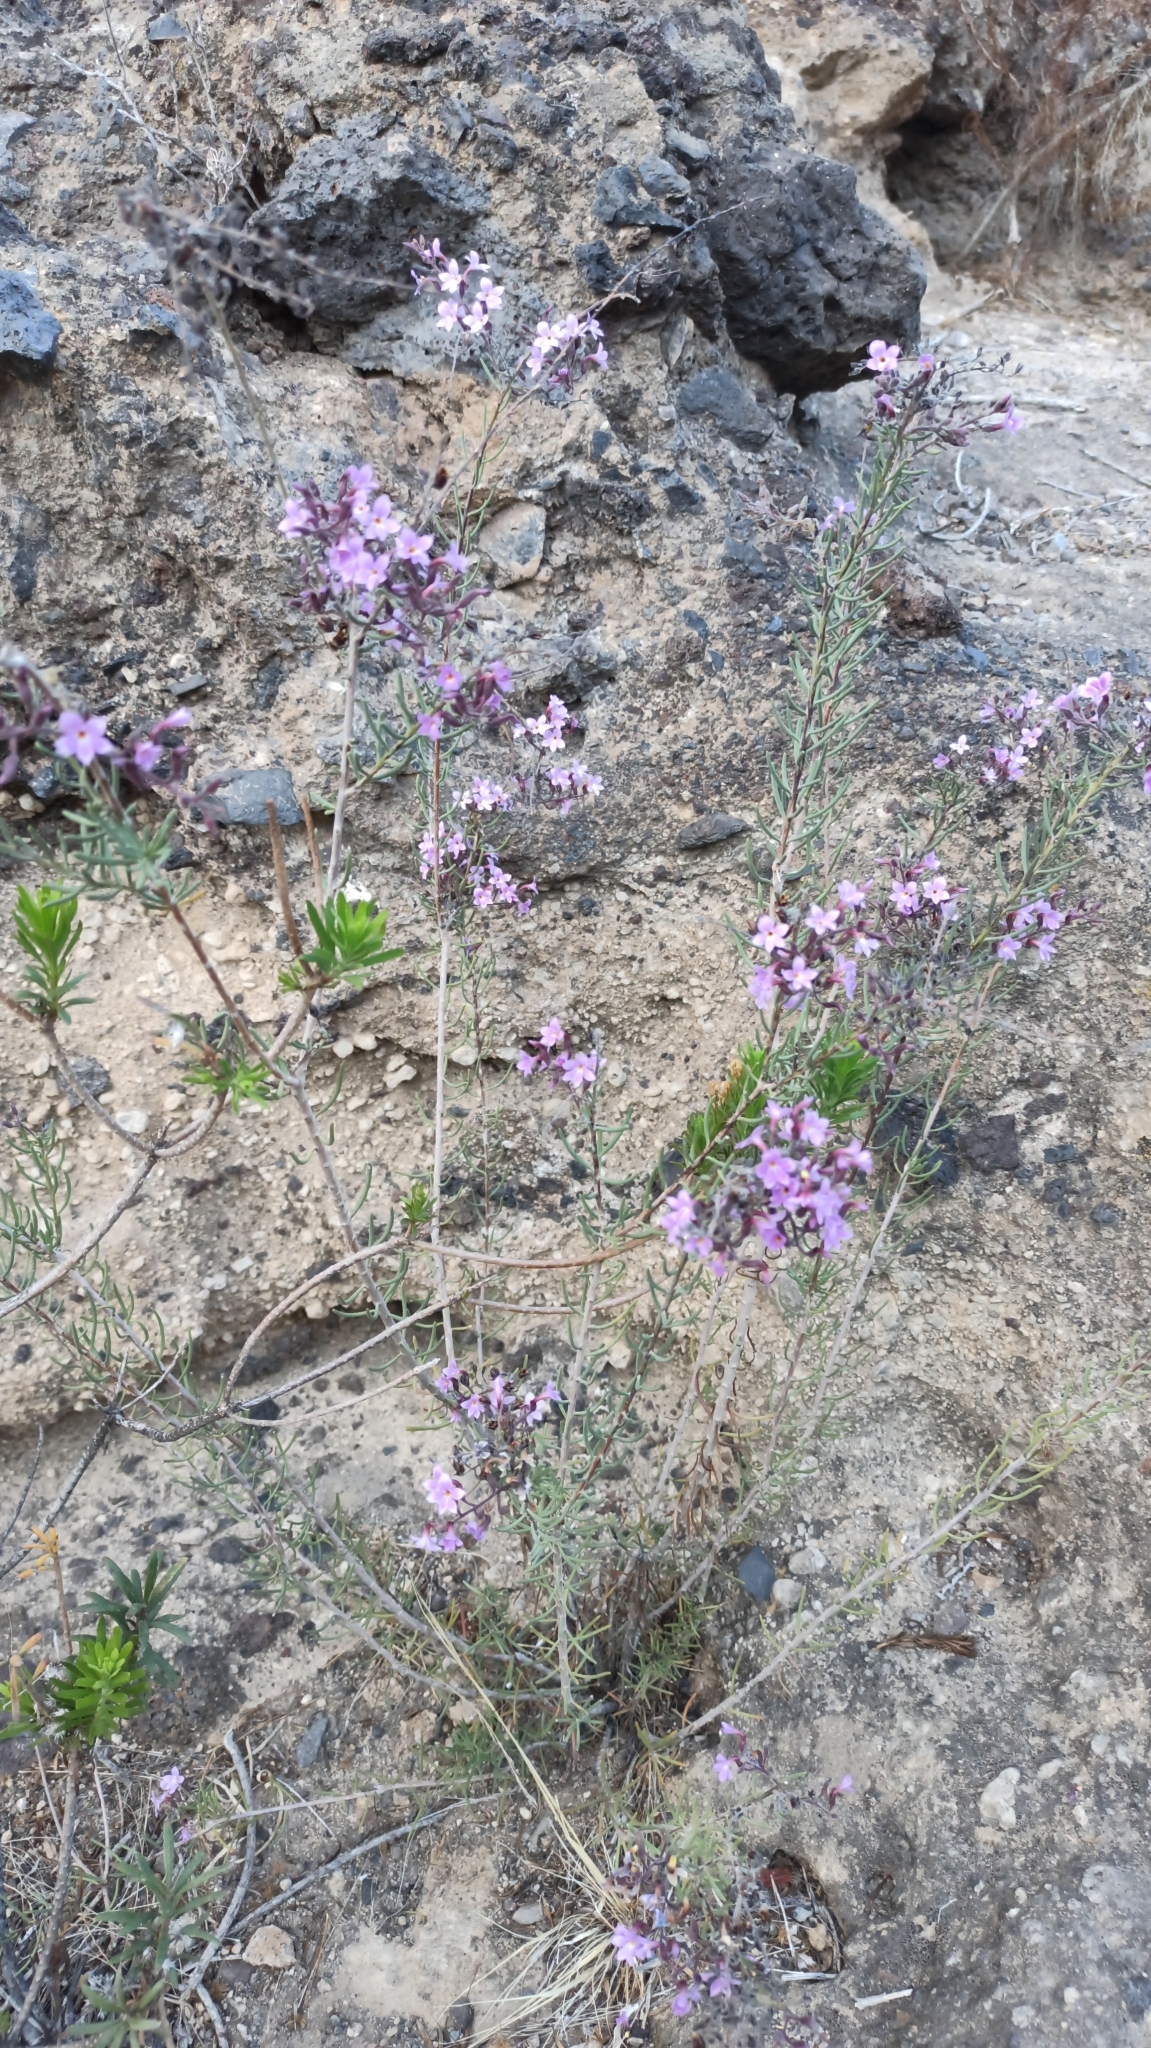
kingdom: Plantae
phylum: Tracheophyta
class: Magnoliopsida
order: Lamiales
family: Plantaginaceae
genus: Campylanthus
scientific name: Campylanthus salsoloides
